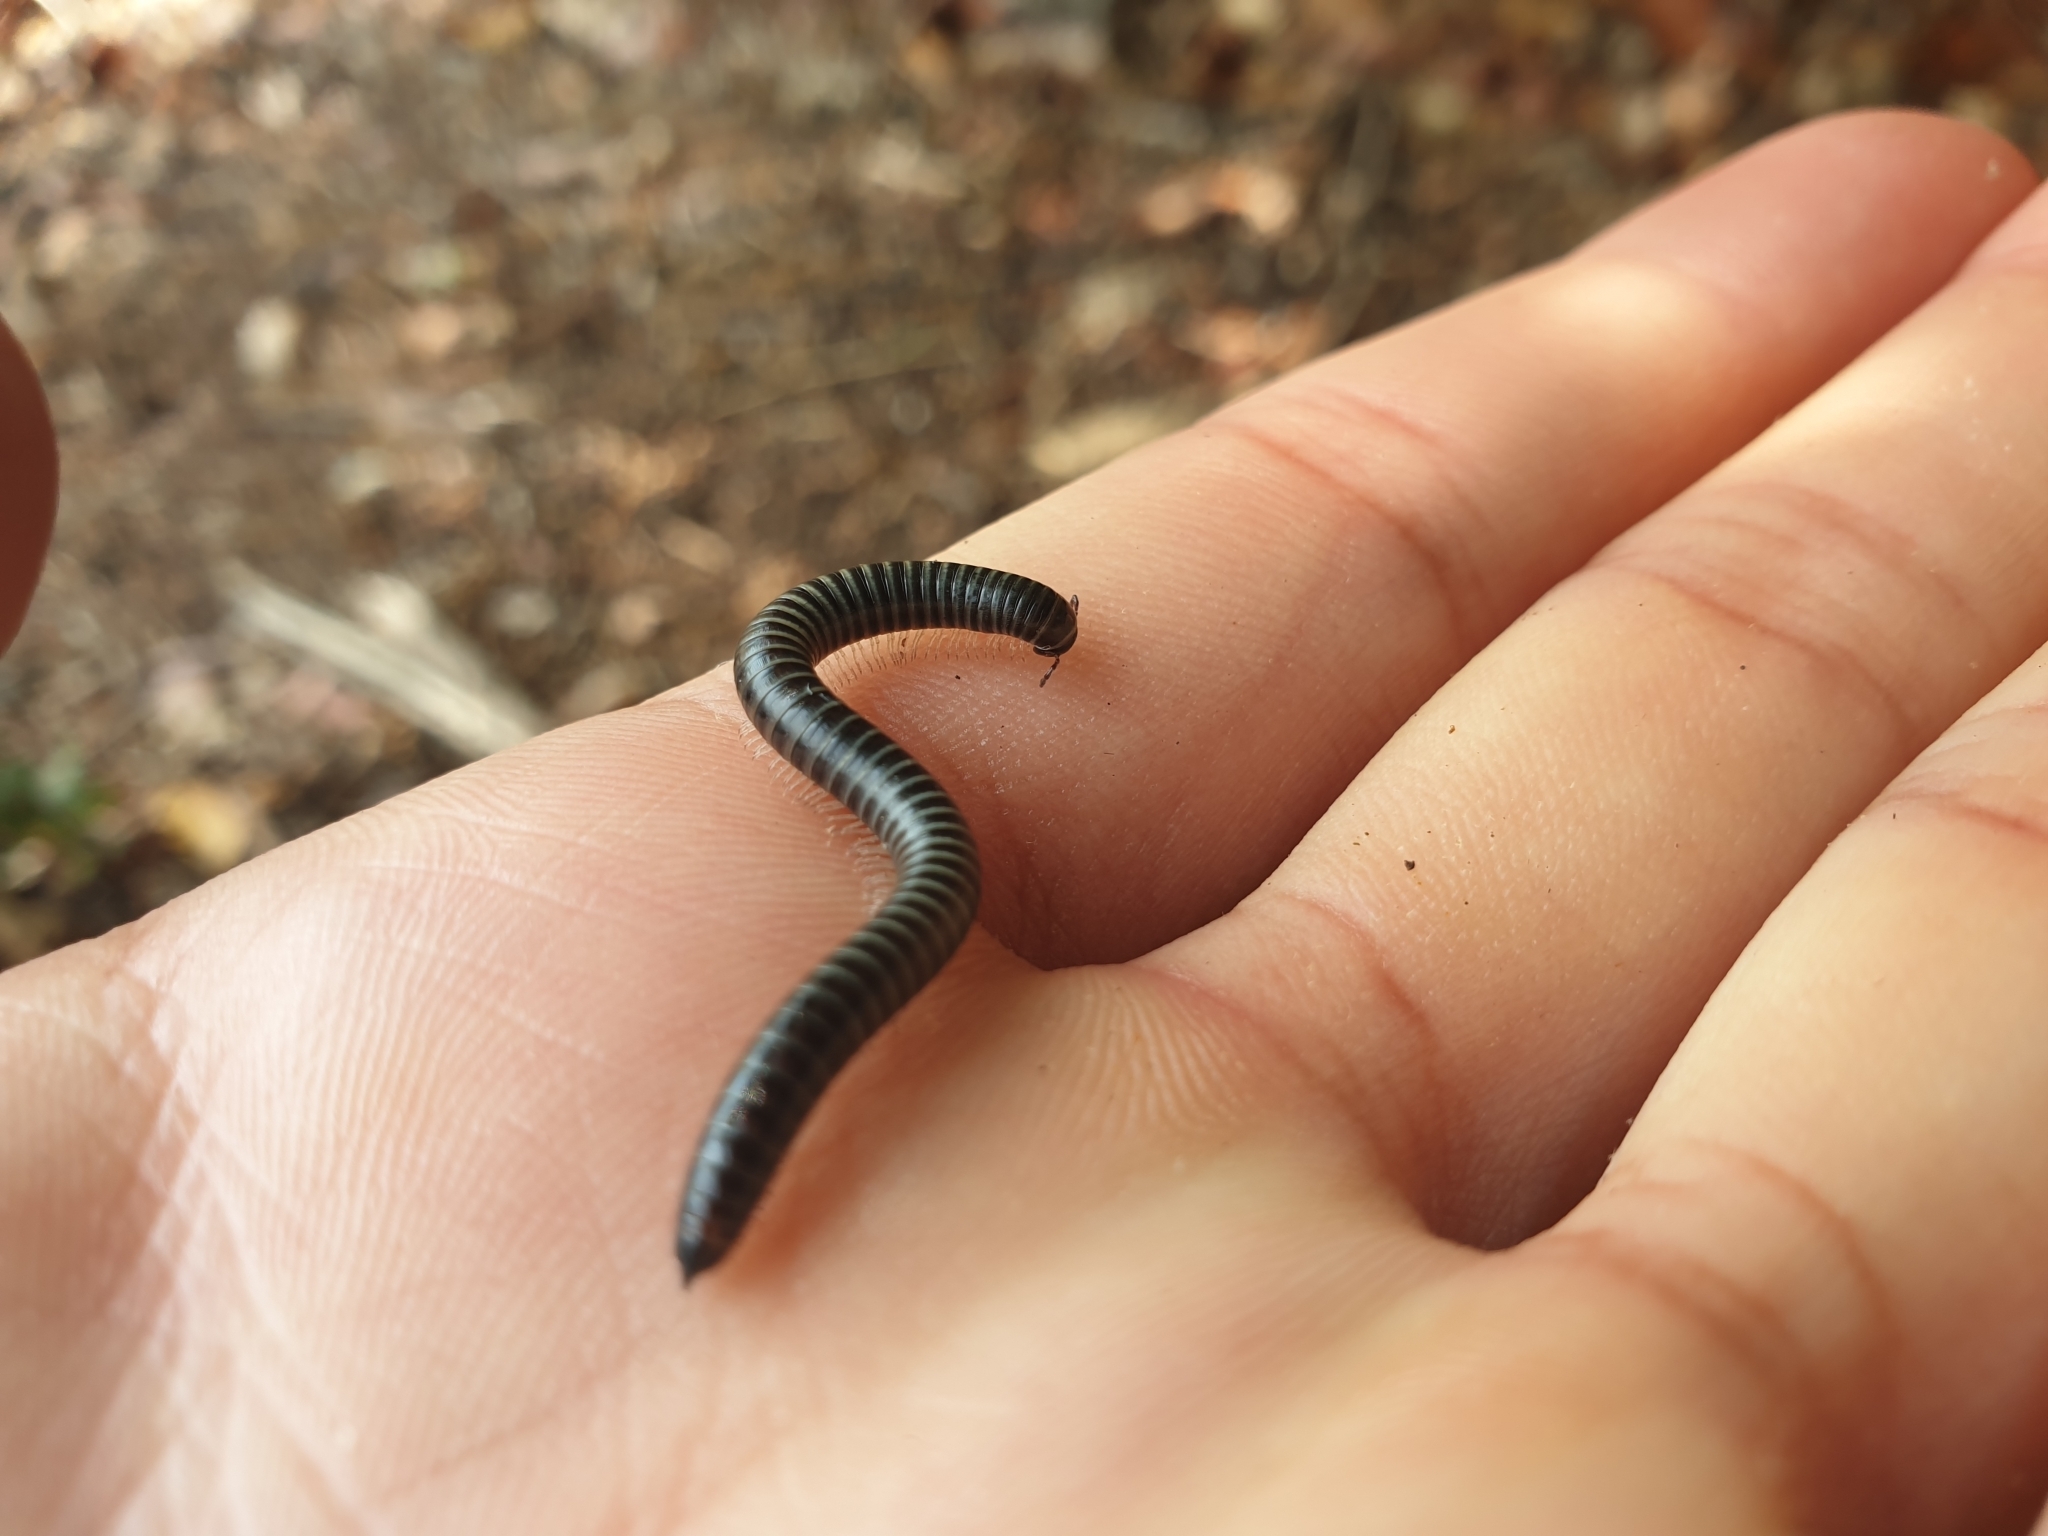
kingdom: Animalia
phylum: Arthropoda
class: Diplopoda
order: Julida
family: Julidae
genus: Ommatoiulus
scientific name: Ommatoiulus sabulosus
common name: Striped millipede
